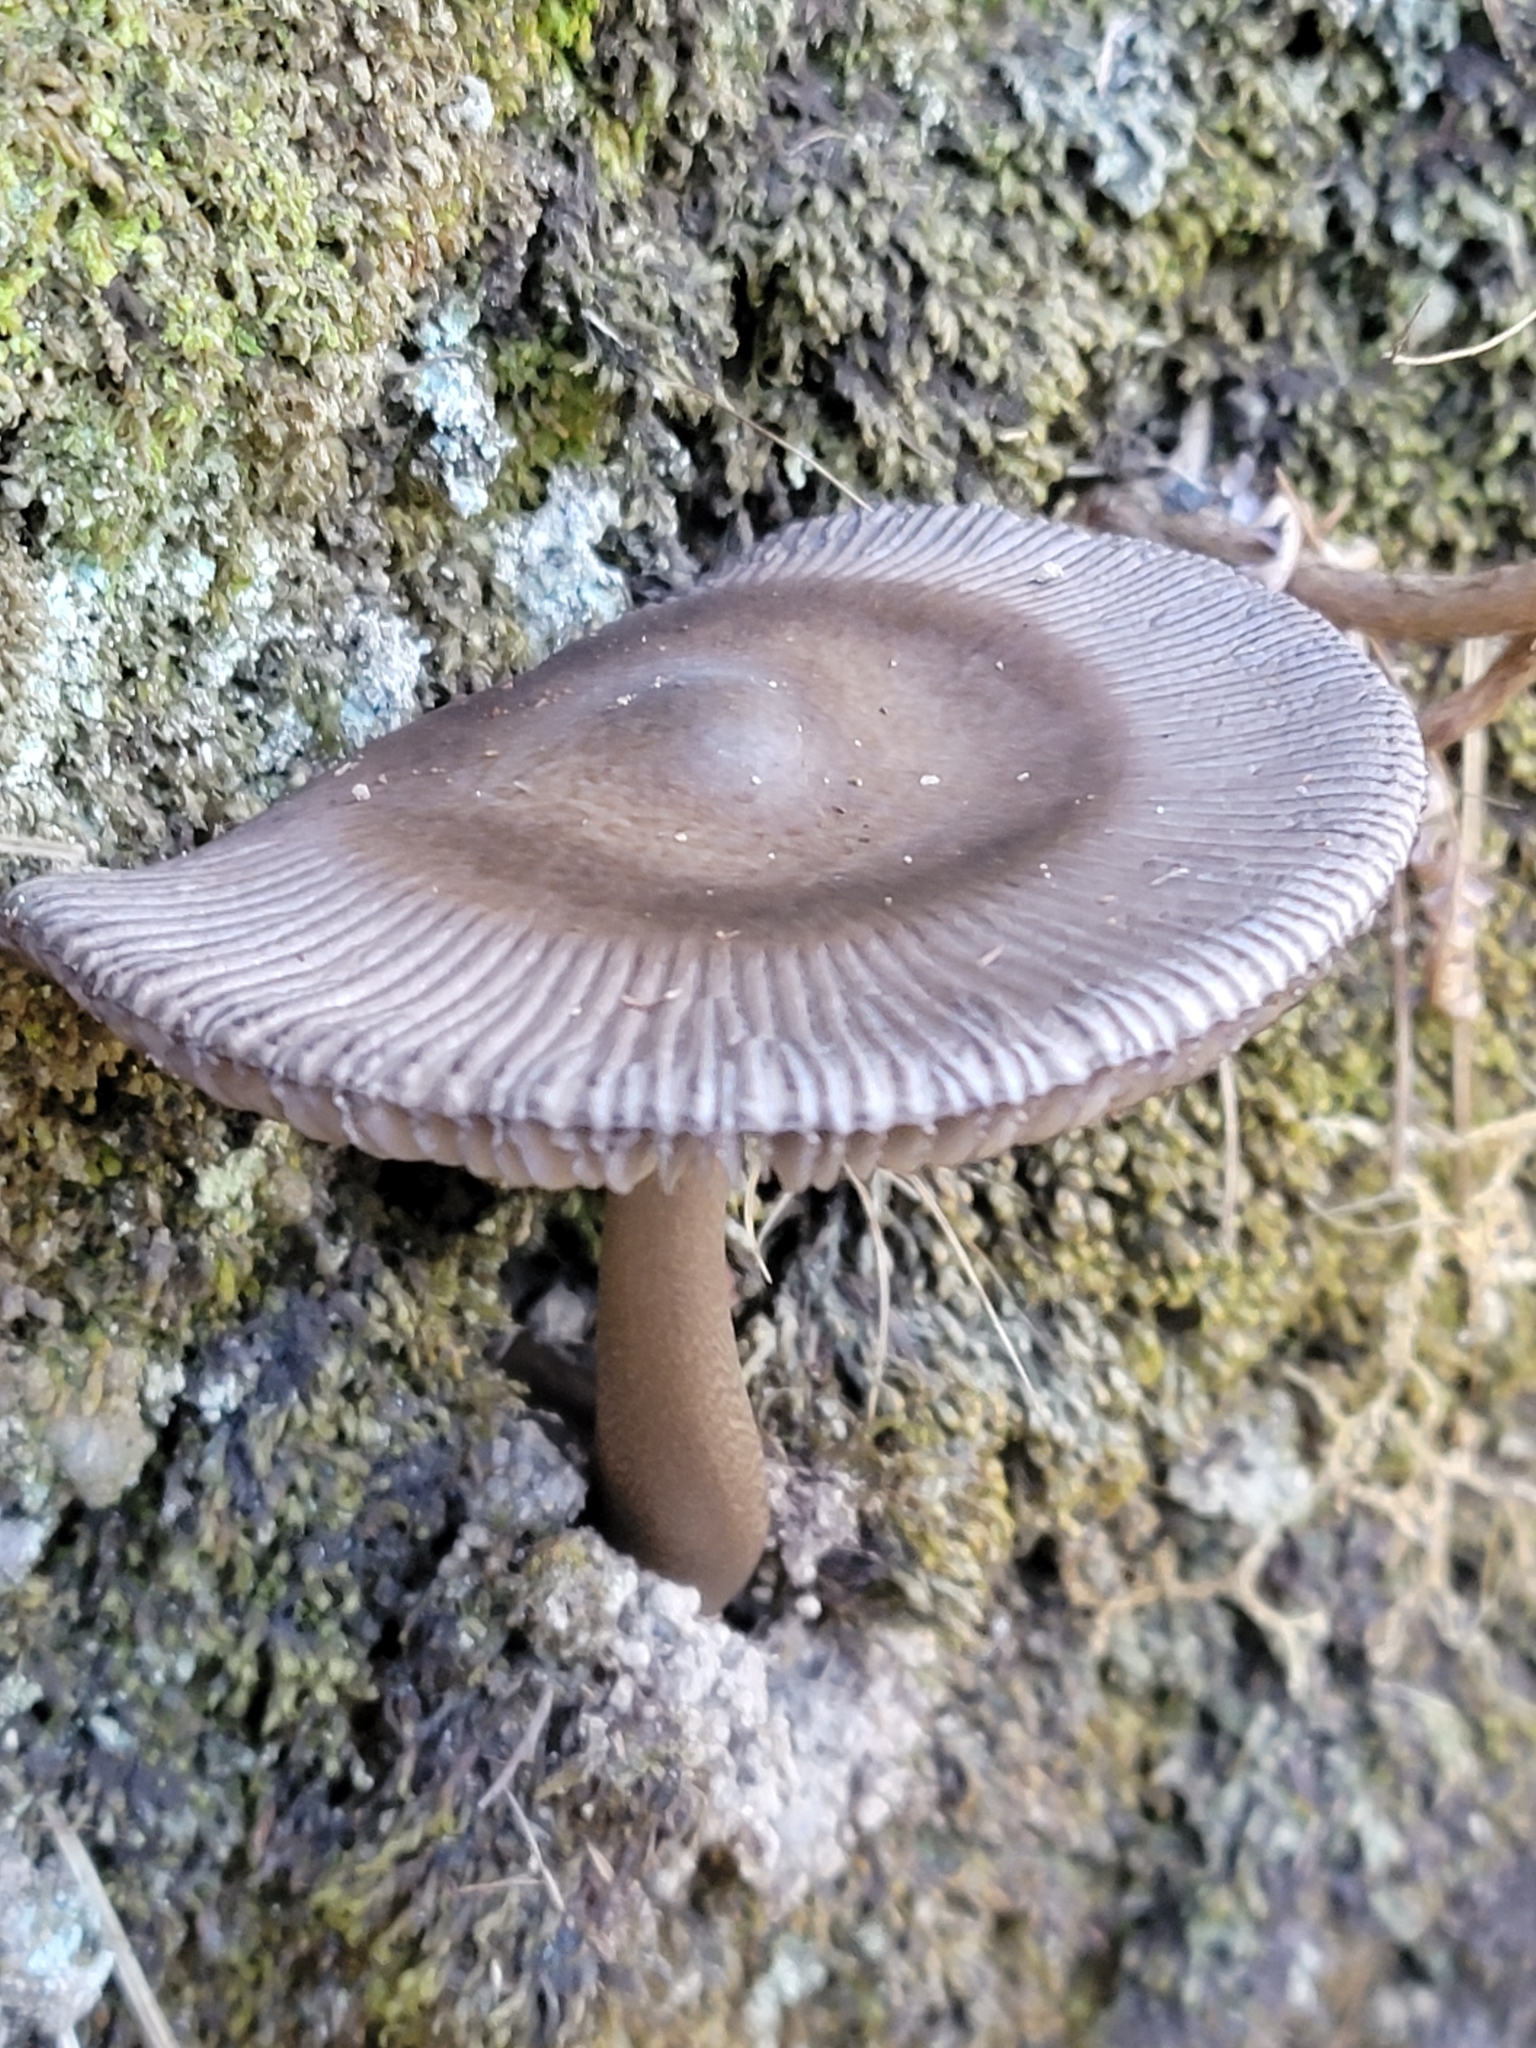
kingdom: Fungi
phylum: Basidiomycota
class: Agaricomycetes
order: Agaricales
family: Amanitaceae
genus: Amanita
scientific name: Amanita pekeoides
